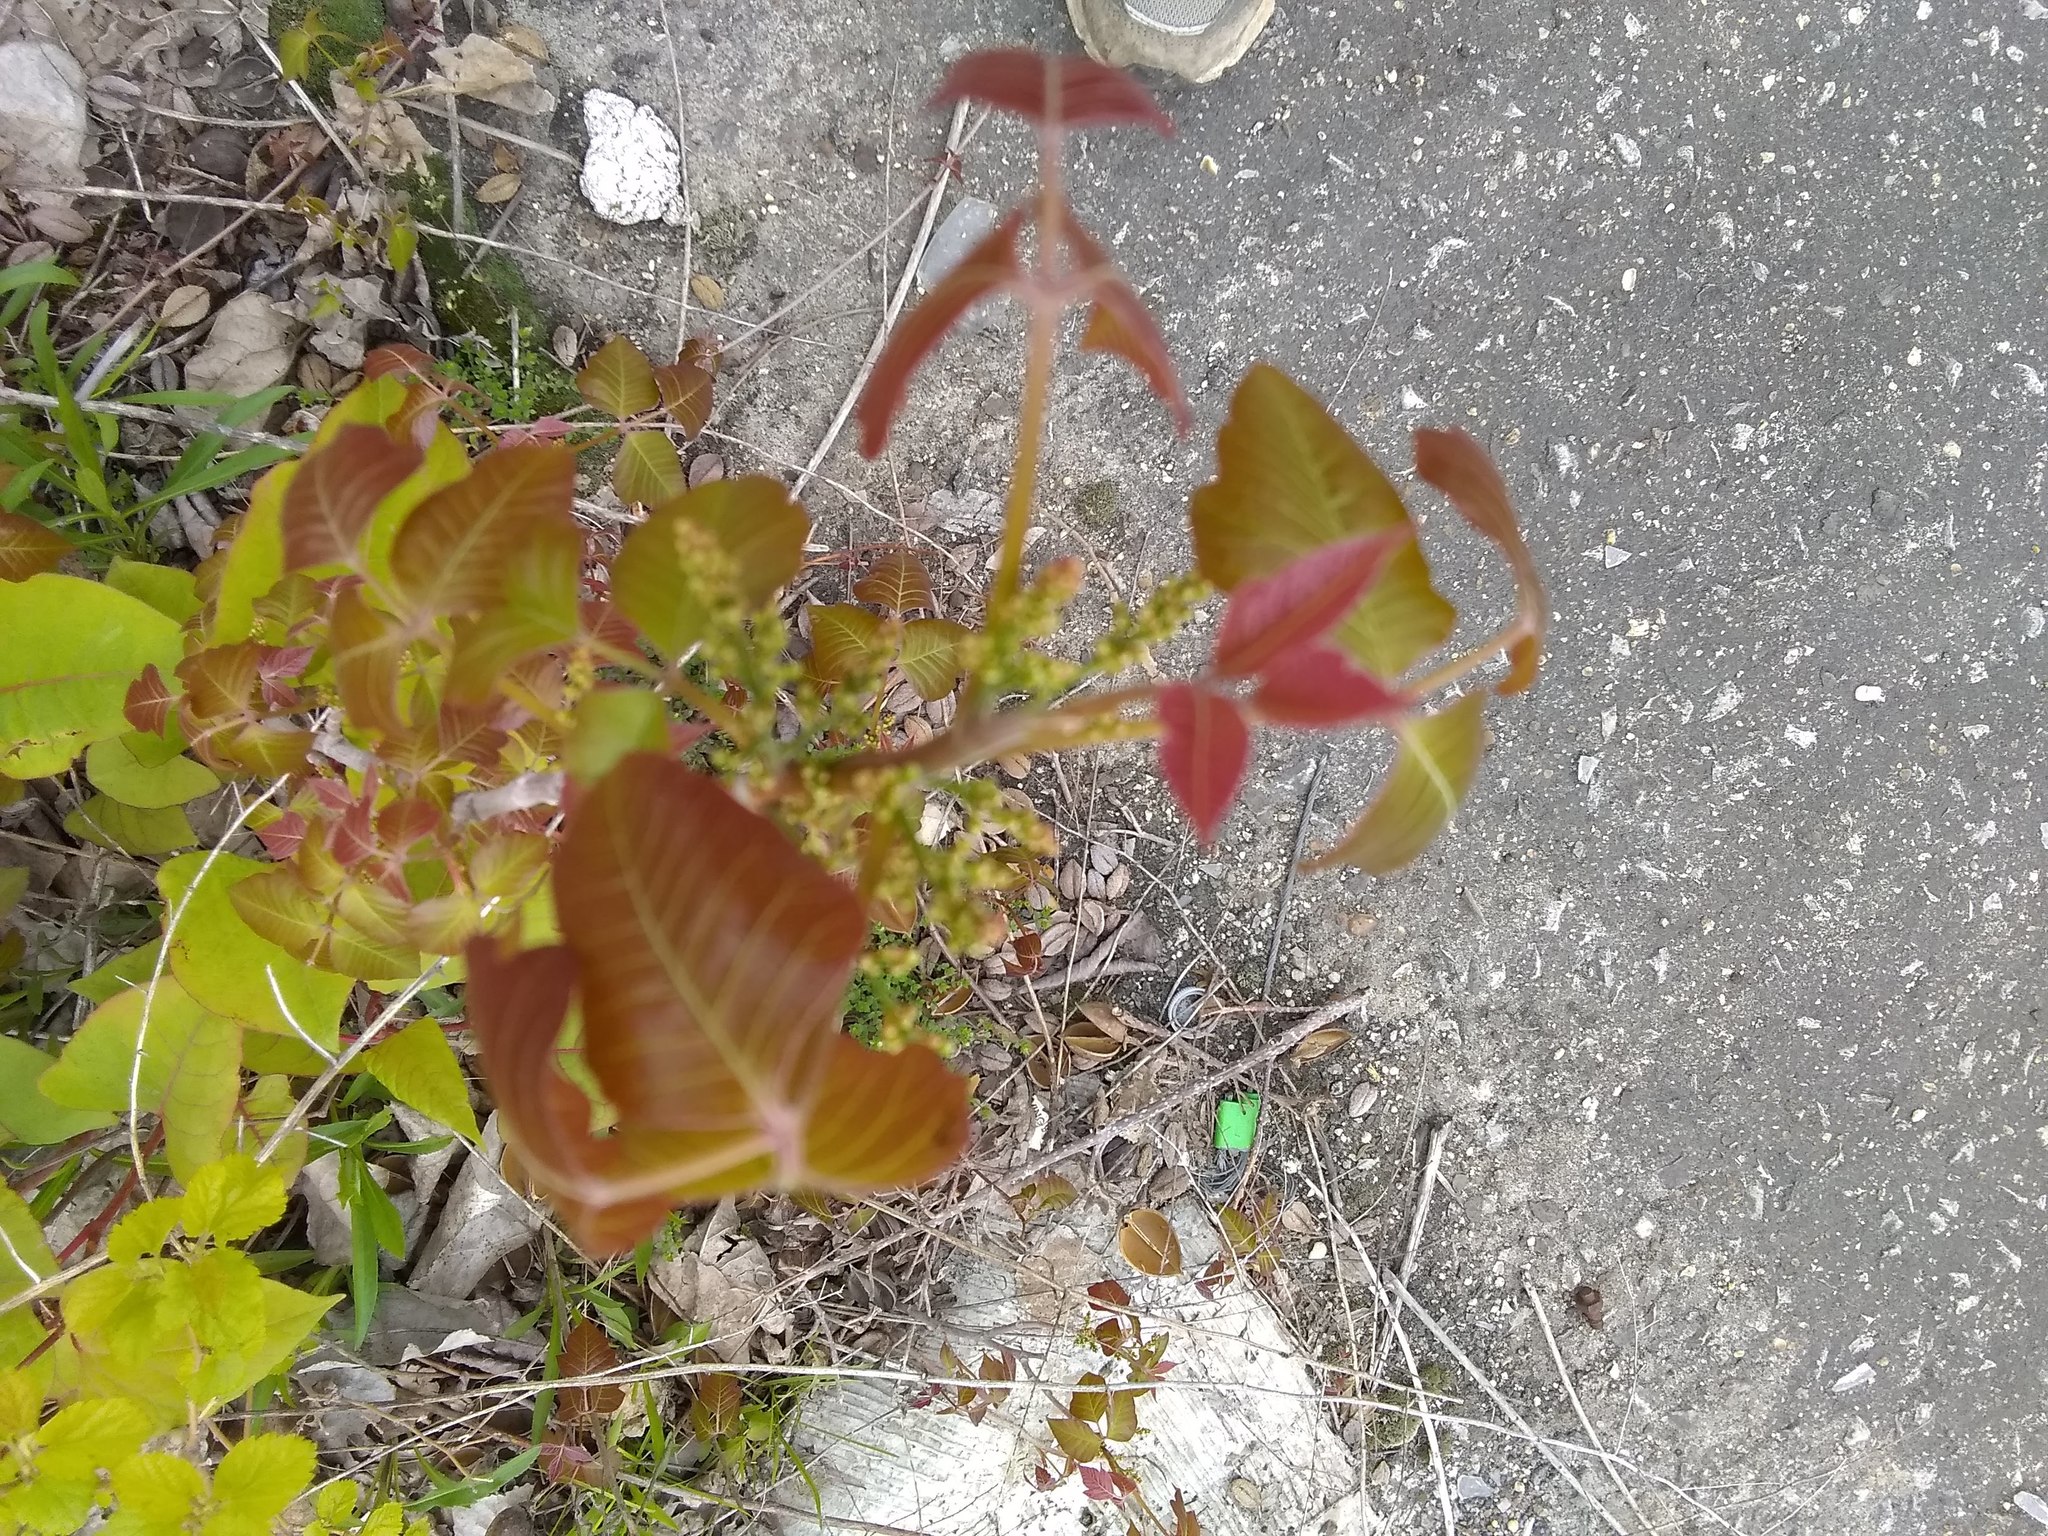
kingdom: Plantae
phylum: Tracheophyta
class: Magnoliopsida
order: Sapindales
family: Anacardiaceae
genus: Toxicodendron
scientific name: Toxicodendron radicans
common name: Poison ivy
